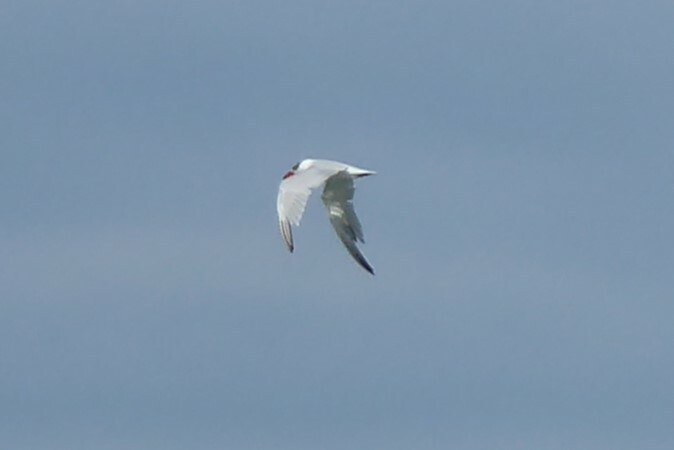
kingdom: Animalia
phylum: Chordata
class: Aves
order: Charadriiformes
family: Laridae
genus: Hydroprogne
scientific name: Hydroprogne caspia
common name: Caspian tern
